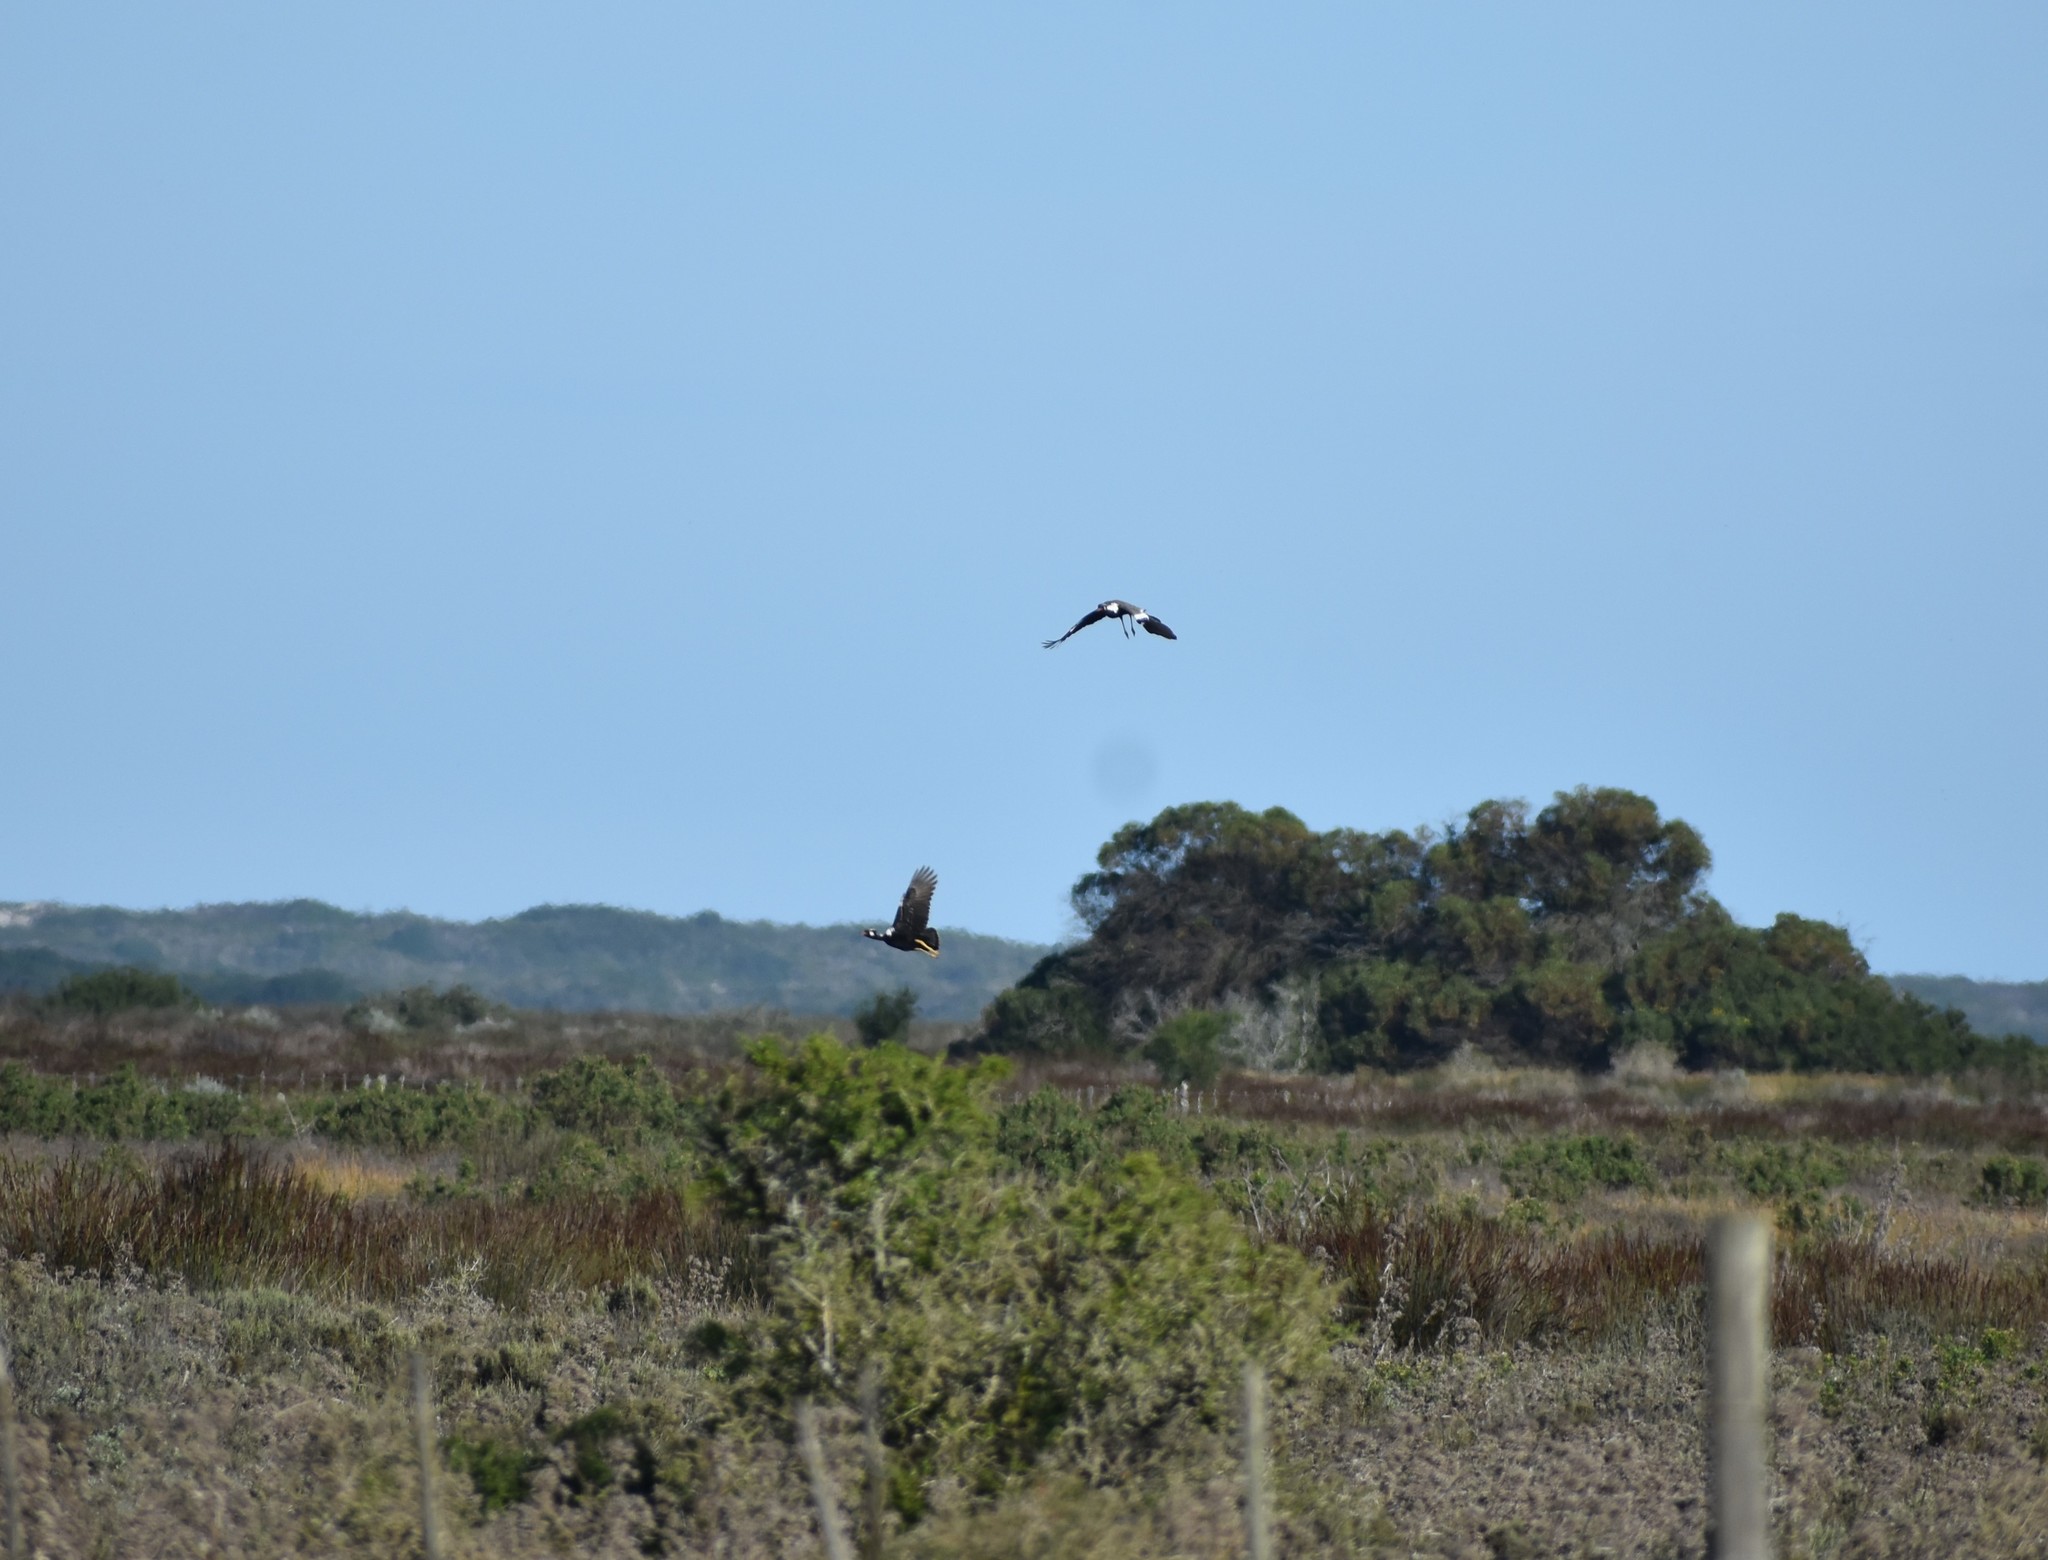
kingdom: Animalia
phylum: Chordata
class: Aves
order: Otidiformes
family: Otididae
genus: Afrotis
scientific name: Afrotis afra
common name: Southern black korhaan
